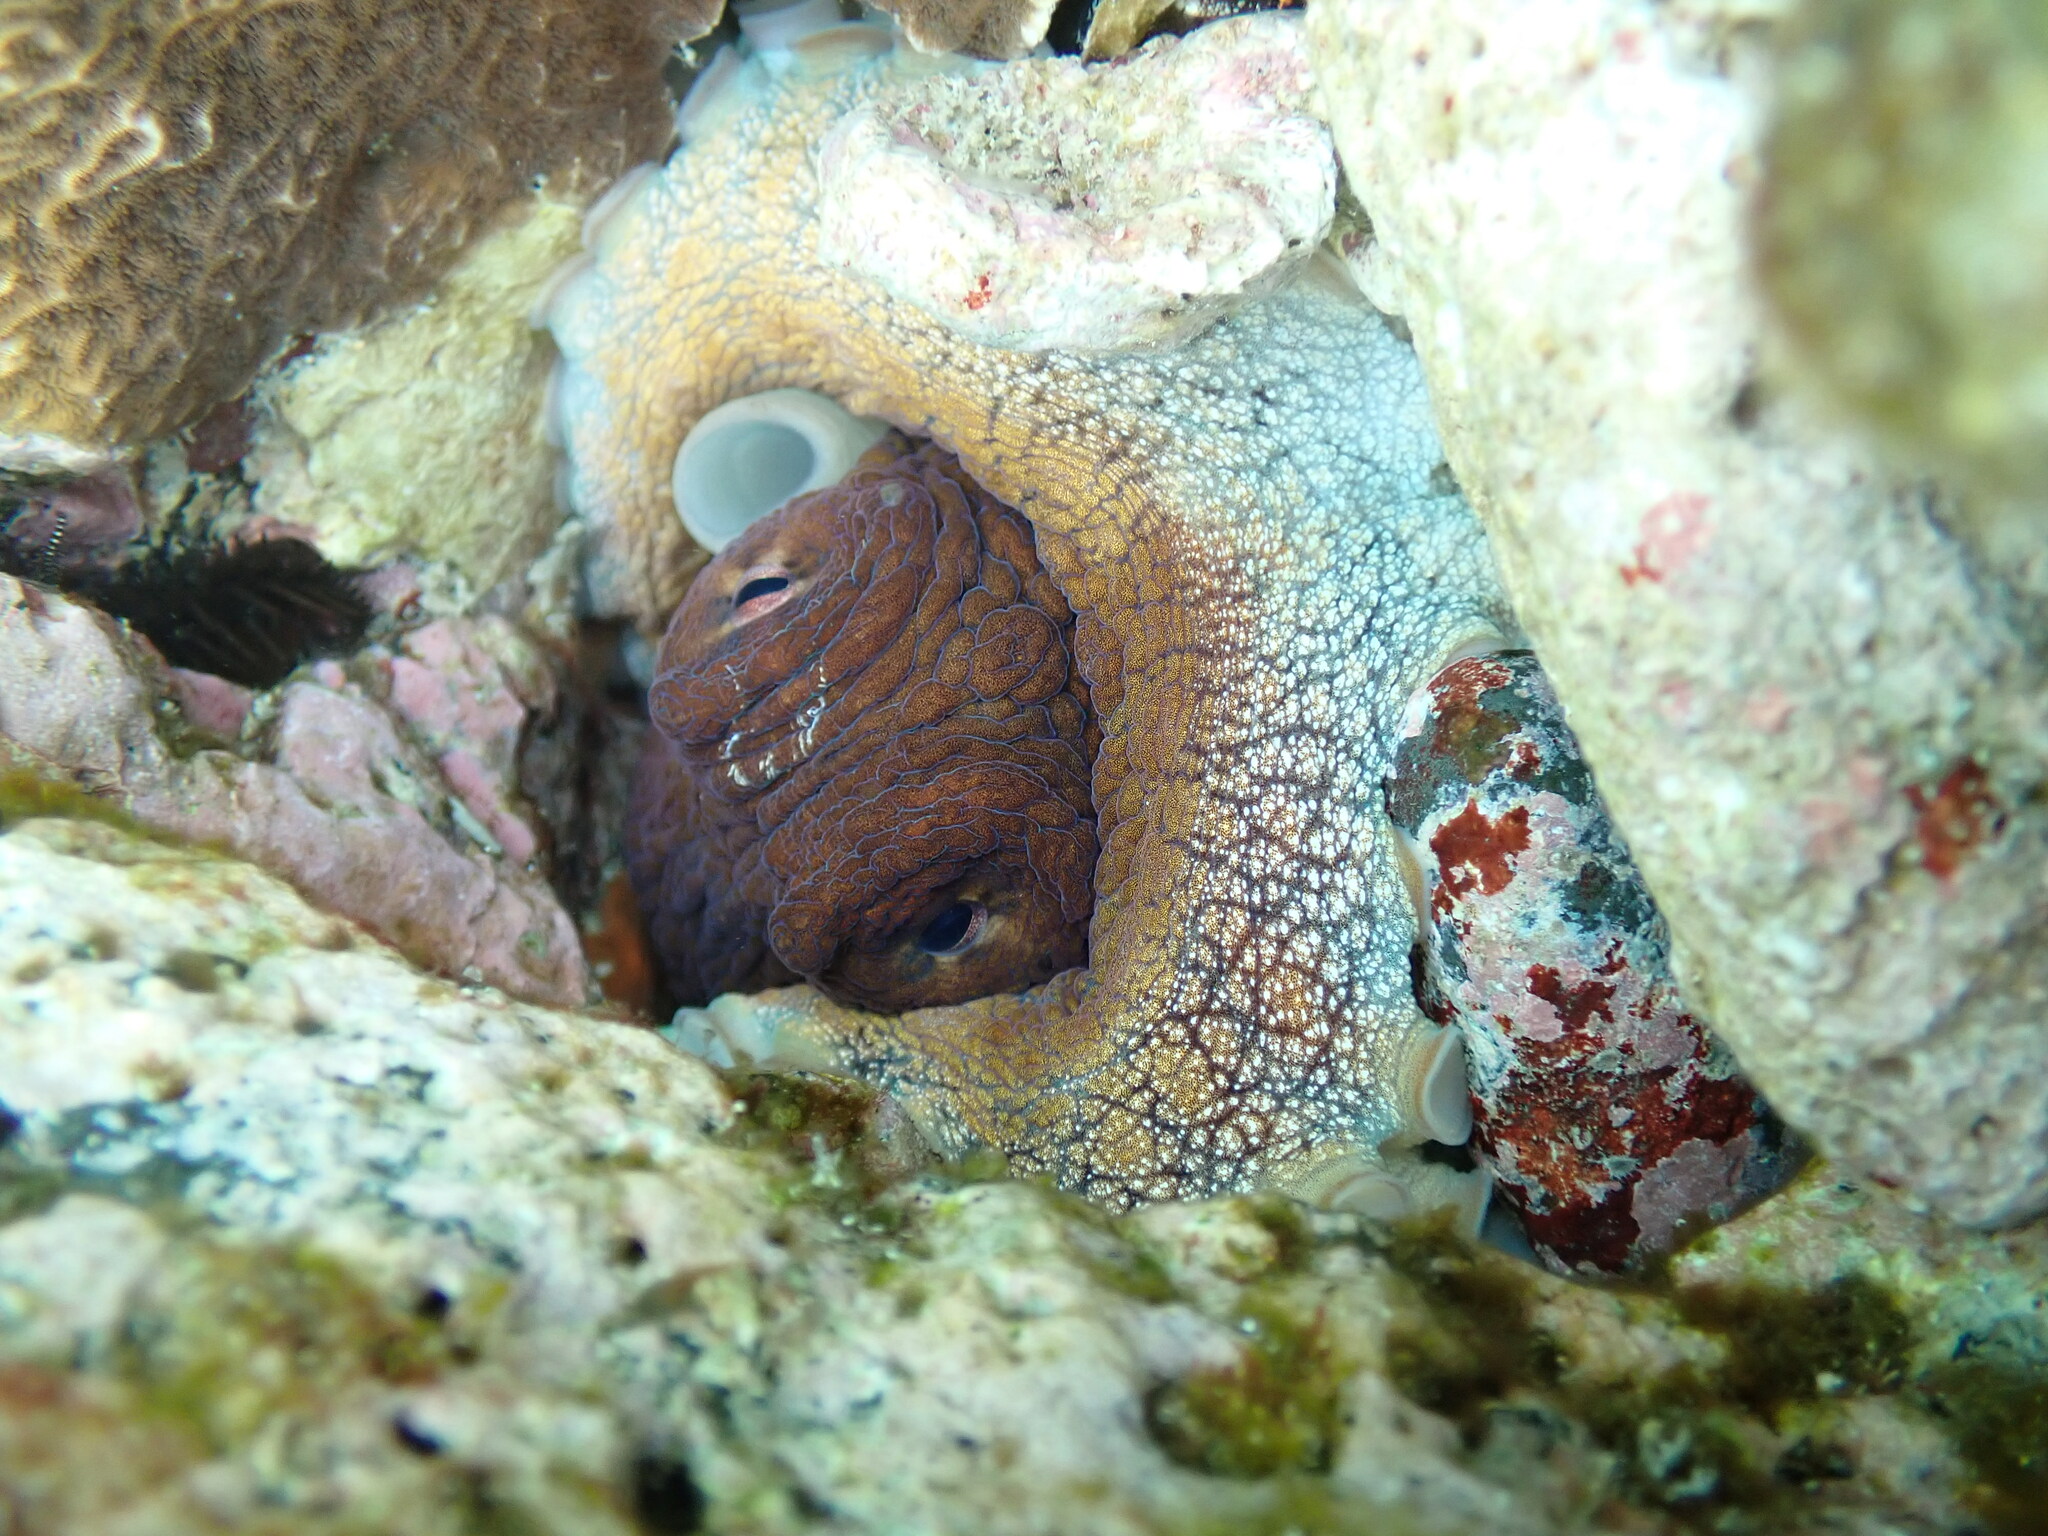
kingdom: Animalia
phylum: Mollusca
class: Cephalopoda
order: Octopoda
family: Octopodidae
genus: Octopus
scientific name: Octopus cyanea
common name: Cyane's octopus
